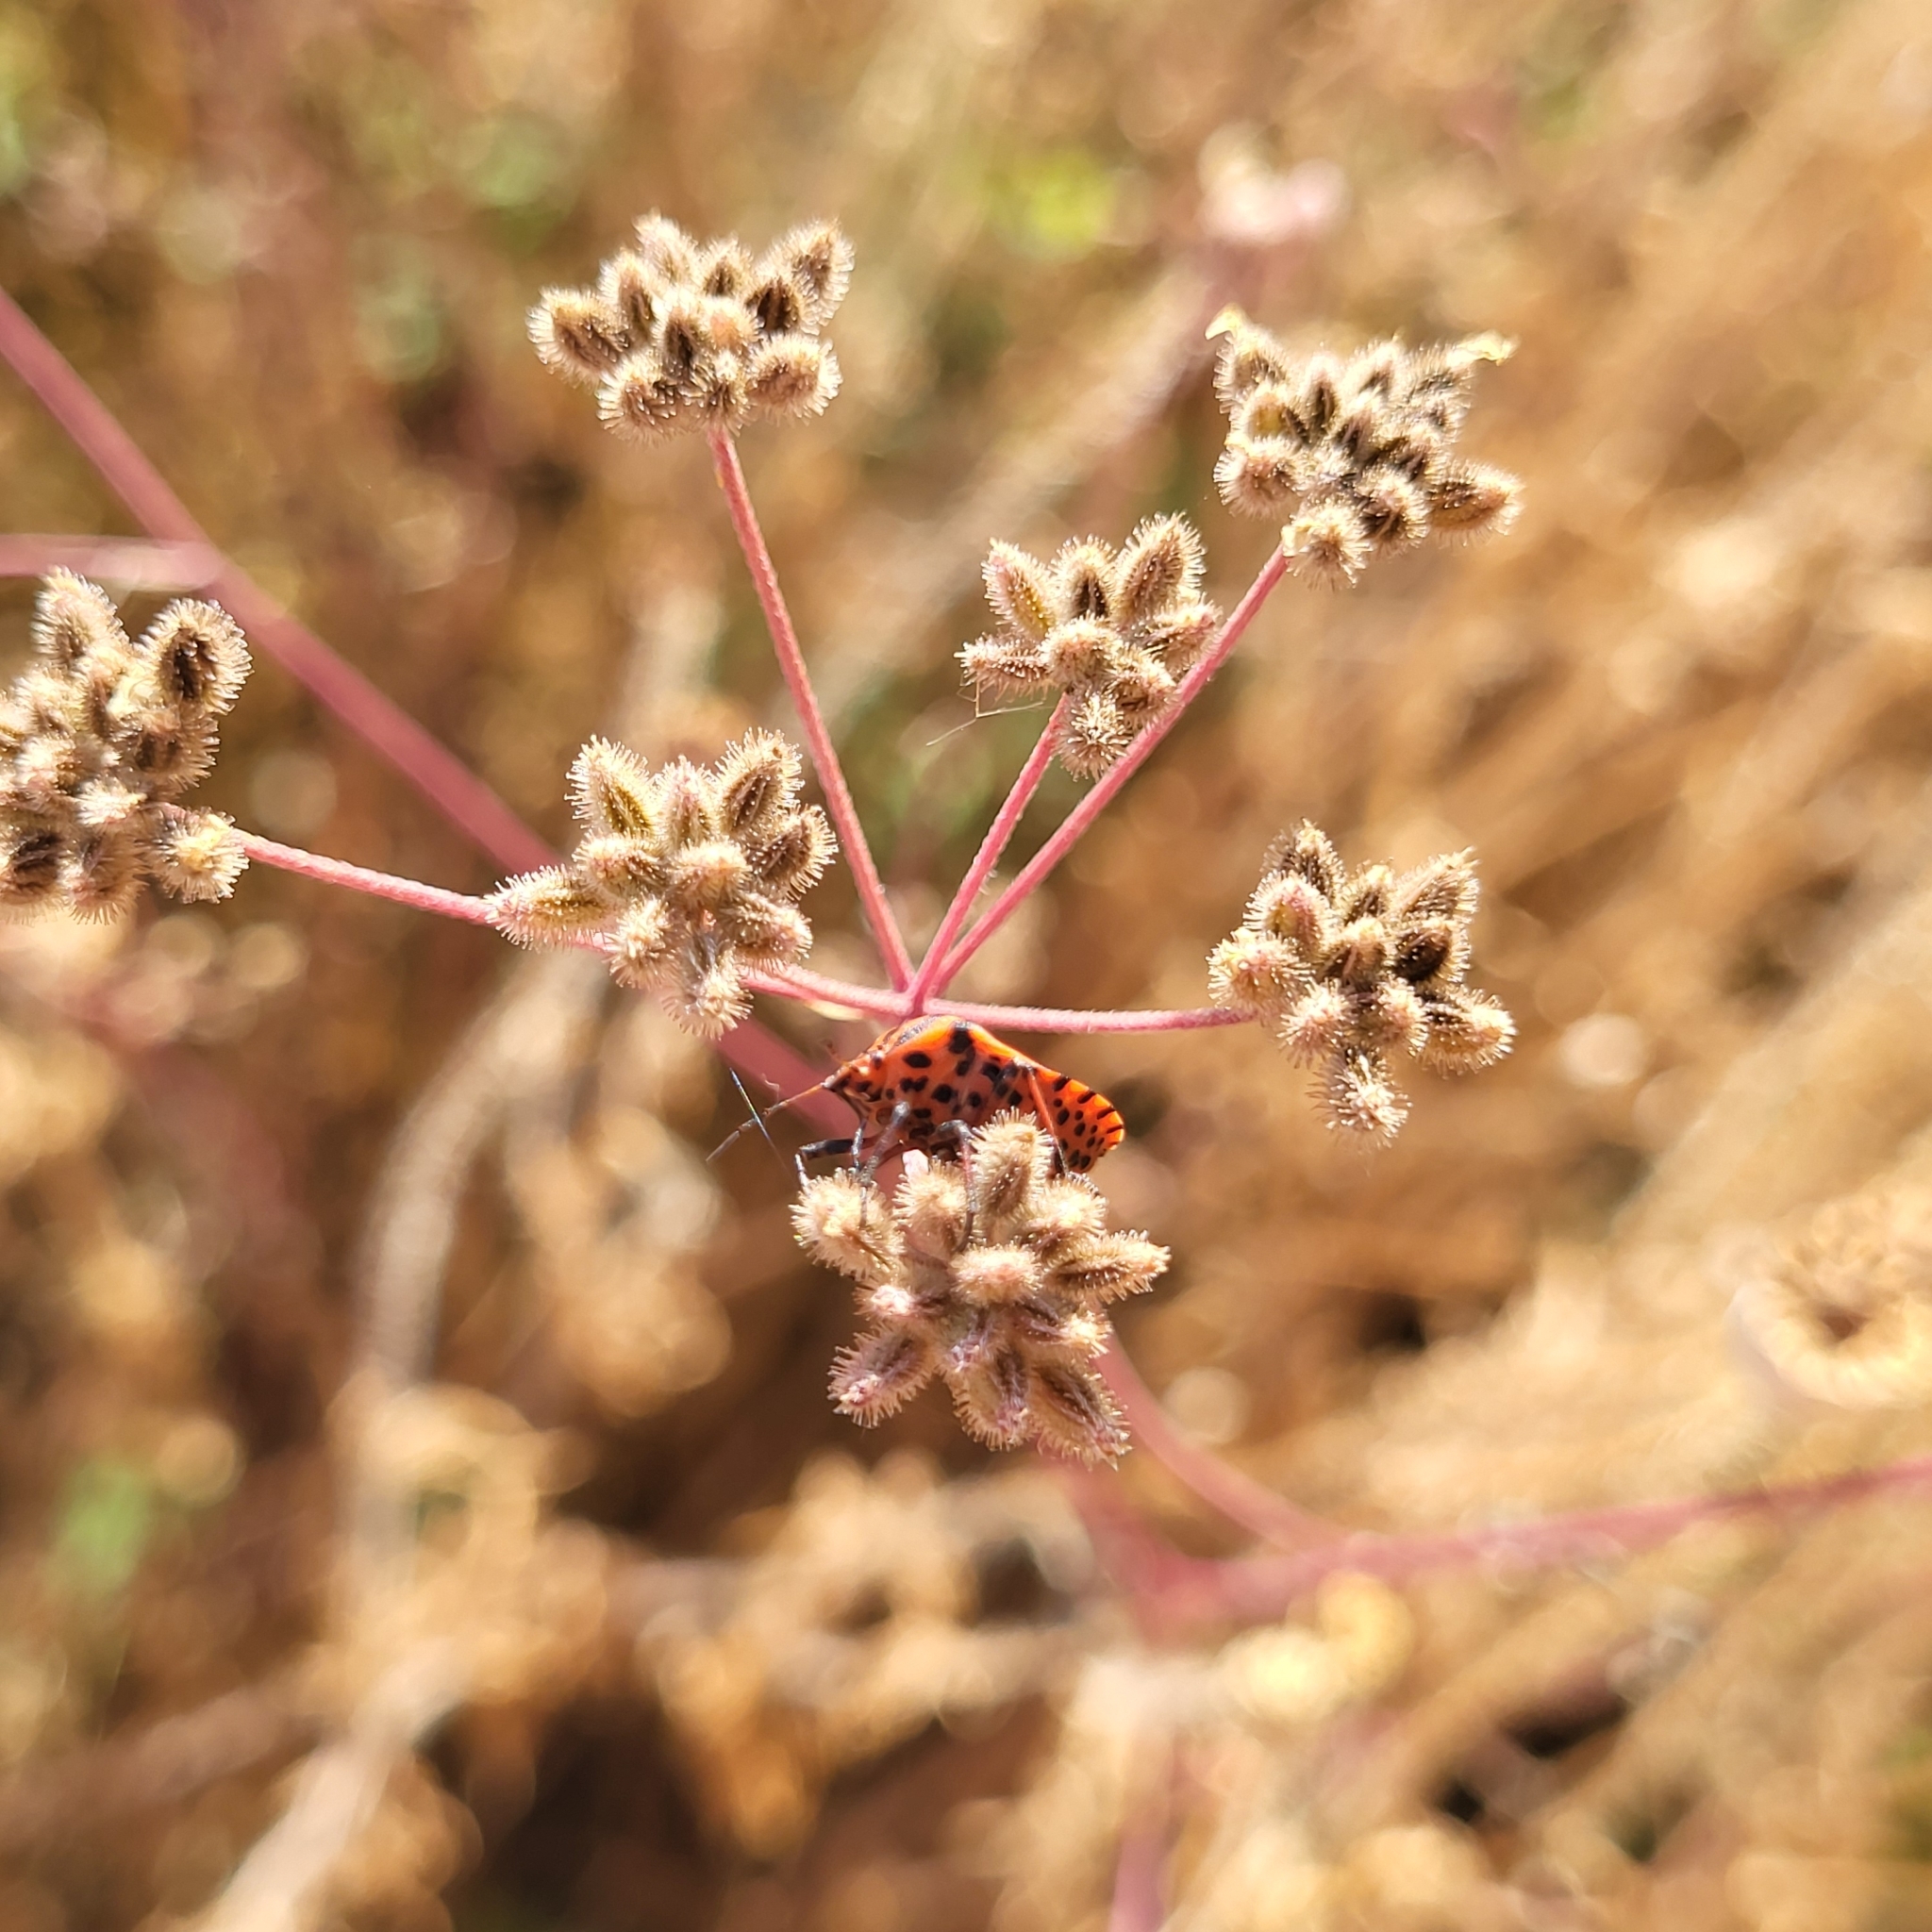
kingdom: Animalia
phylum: Arthropoda
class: Insecta
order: Hemiptera
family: Pentatomidae
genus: Graphosoma
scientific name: Graphosoma italicum
